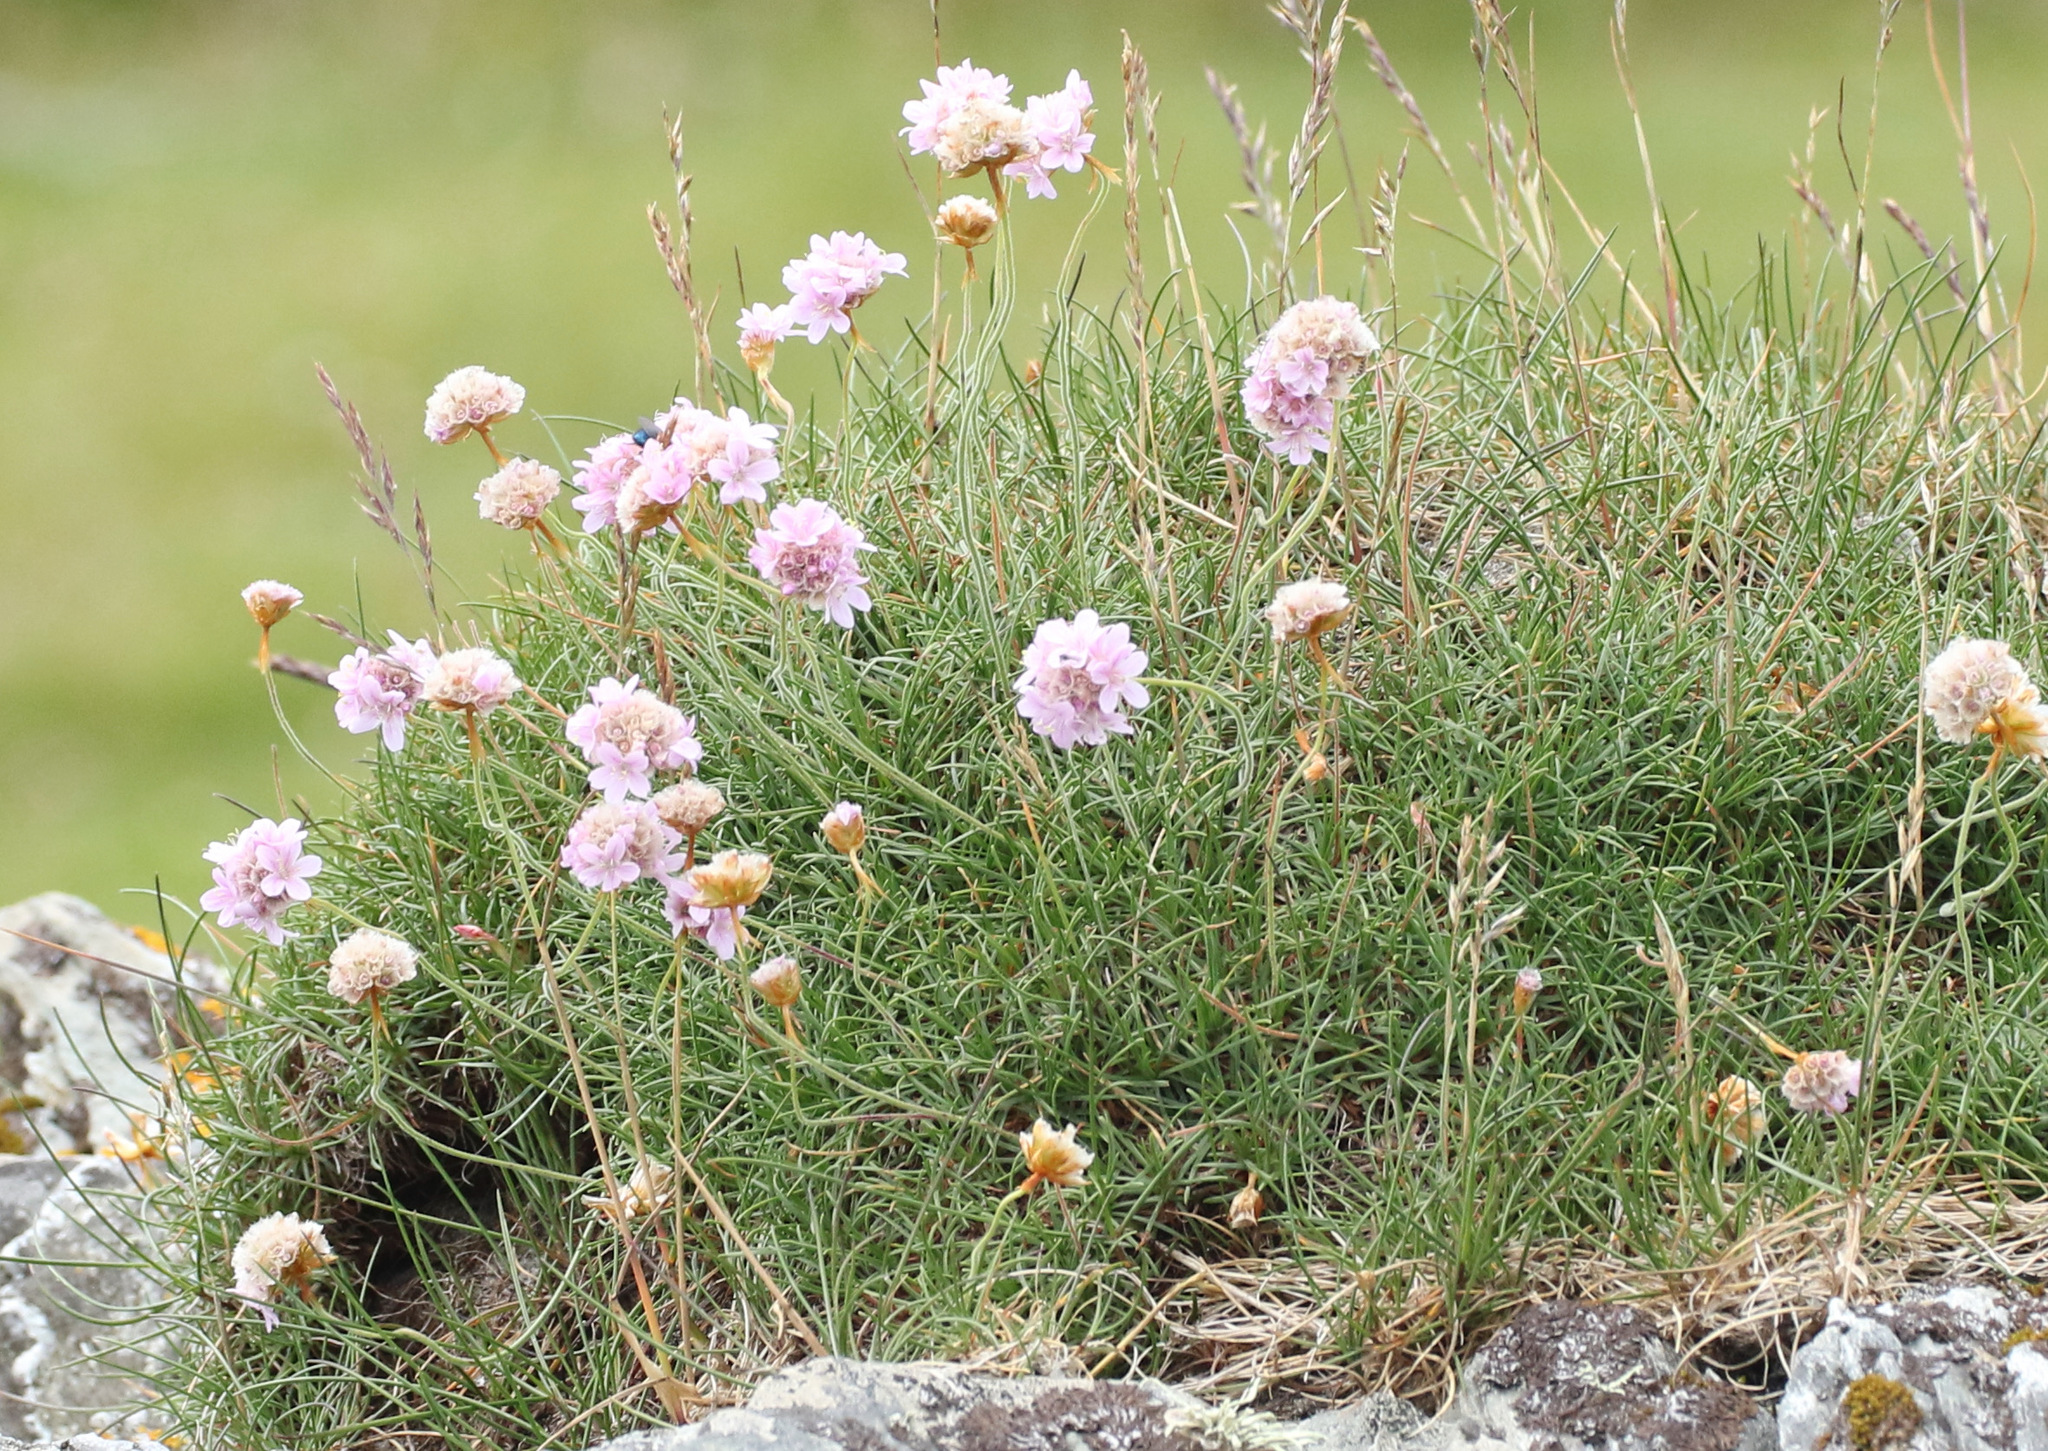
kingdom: Plantae
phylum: Tracheophyta
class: Magnoliopsida
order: Caryophyllales
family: Plumbaginaceae
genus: Armeria
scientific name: Armeria maritima
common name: Thrift
